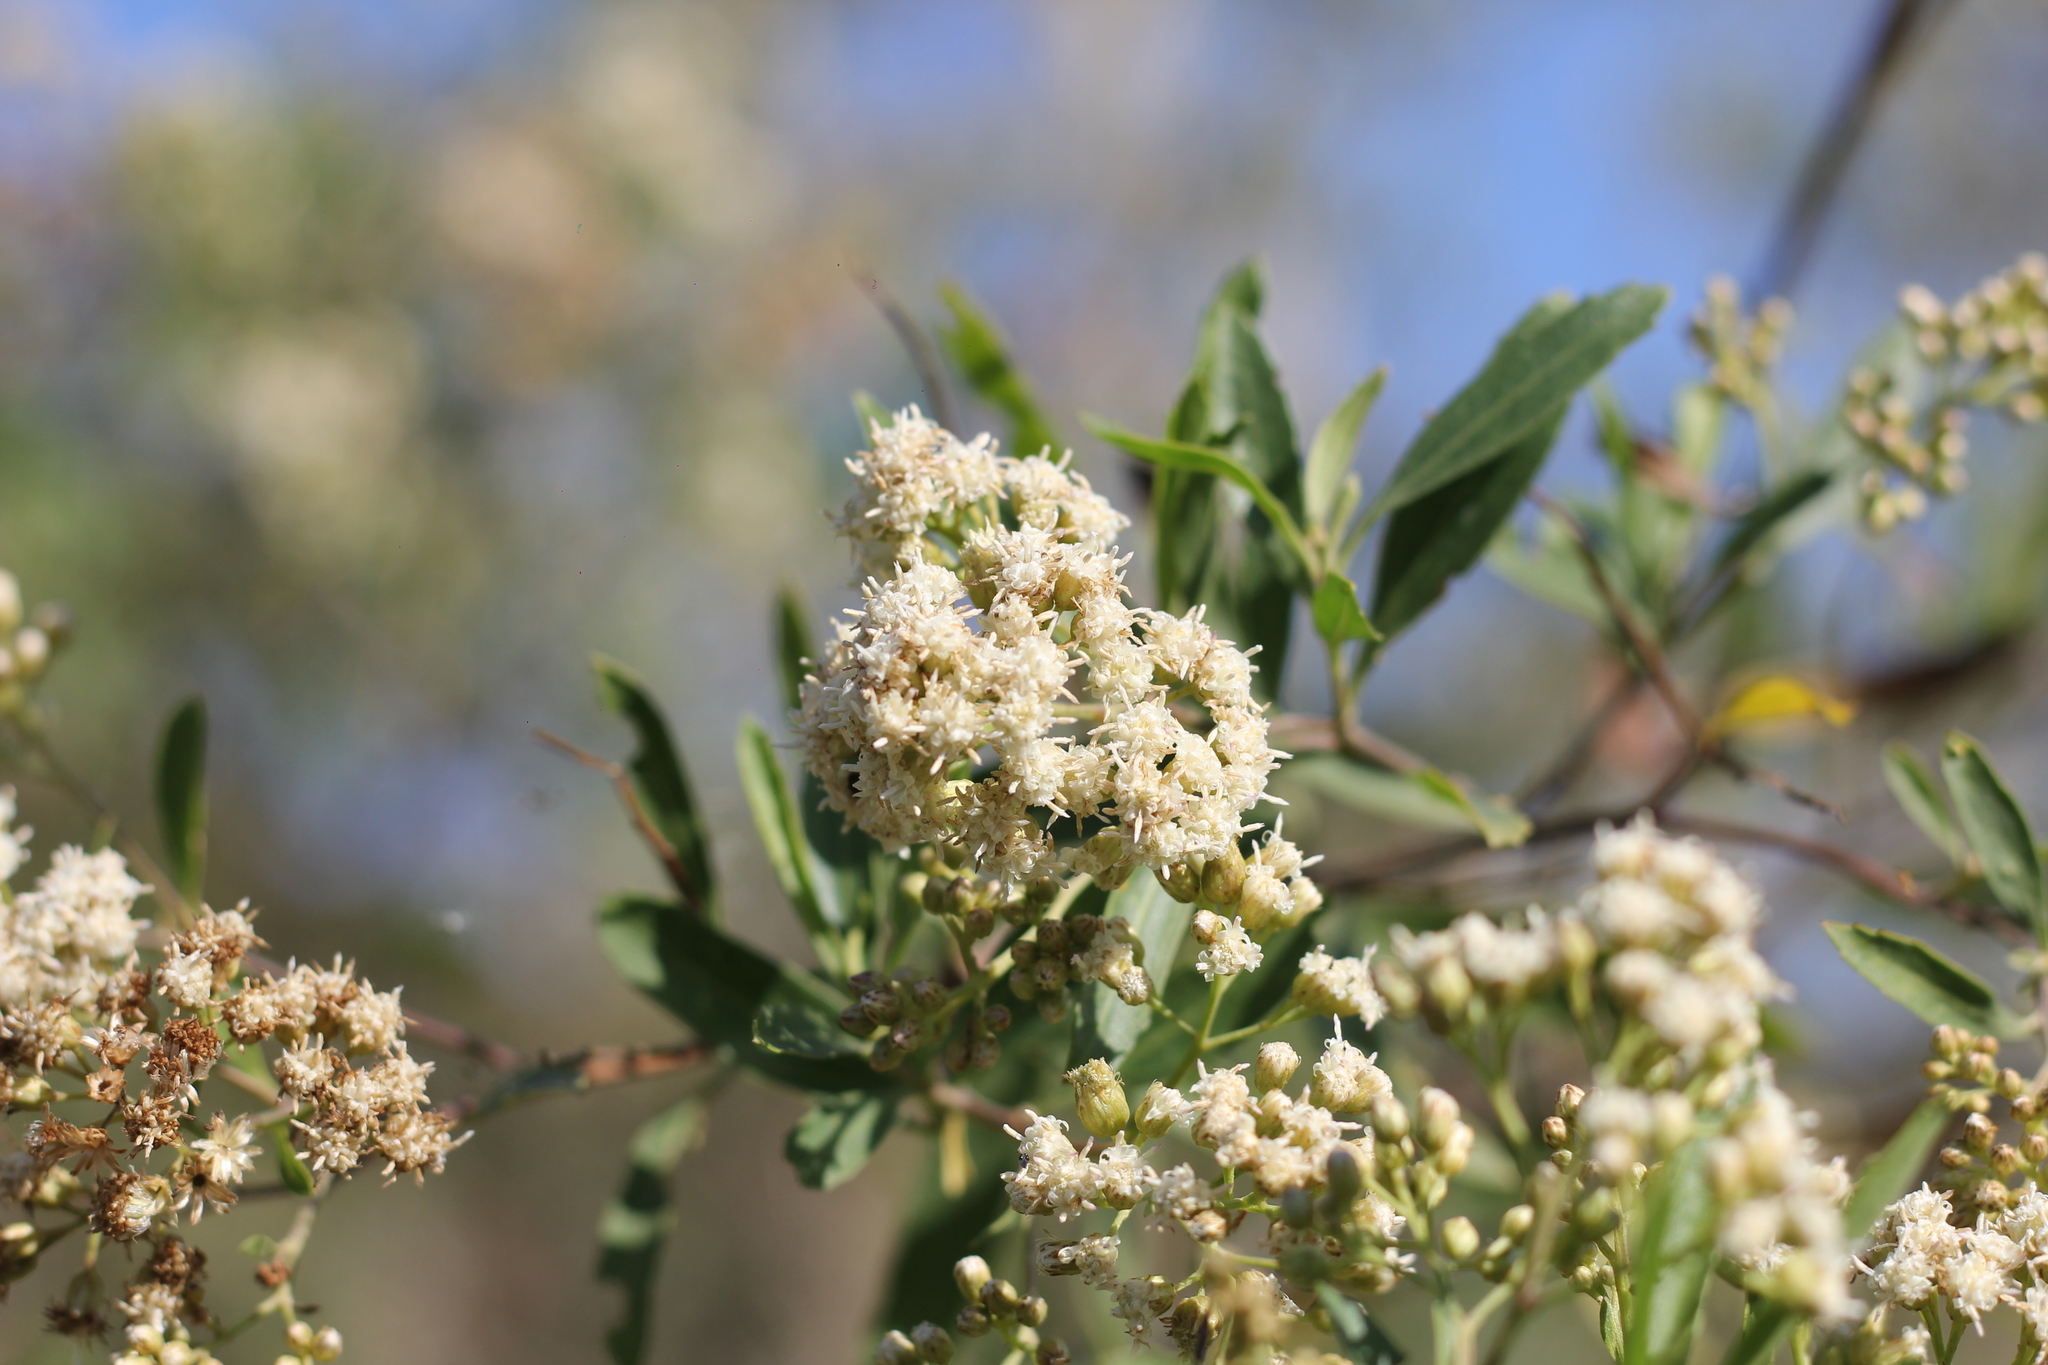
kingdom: Plantae
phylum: Tracheophyta
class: Magnoliopsida
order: Asterales
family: Asteraceae
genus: Baccharis
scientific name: Baccharis salicifolia
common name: Sticky baccharis
